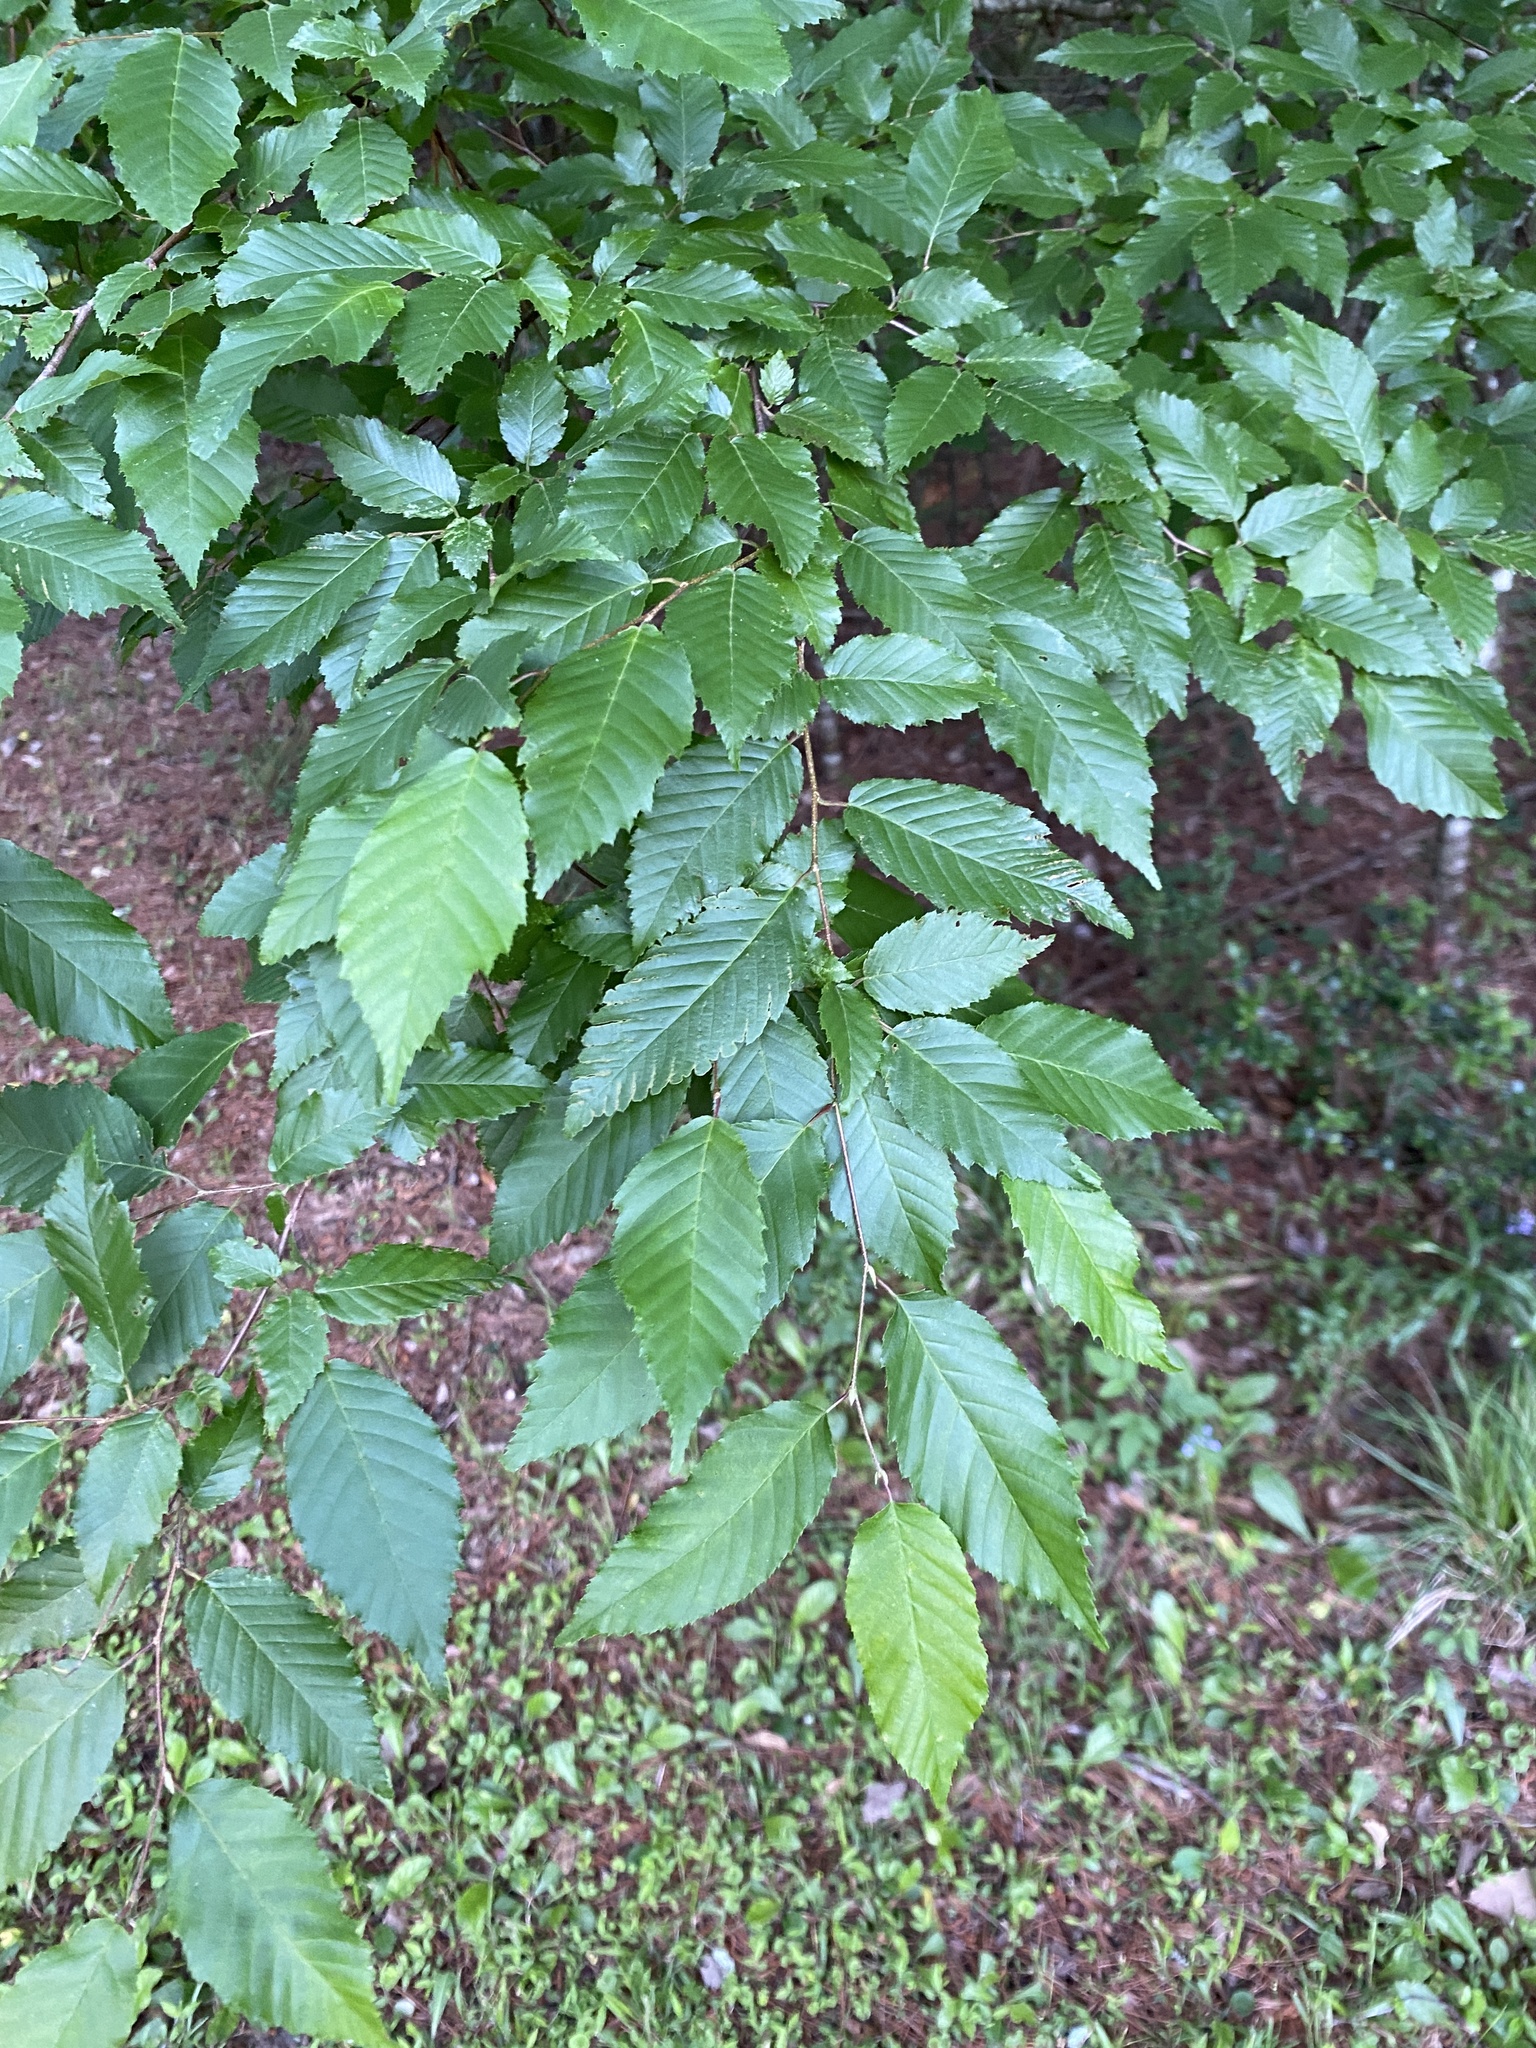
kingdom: Plantae
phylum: Tracheophyta
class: Magnoliopsida
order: Fagales
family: Betulaceae
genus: Carpinus
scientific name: Carpinus caroliniana
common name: American hornbeam
